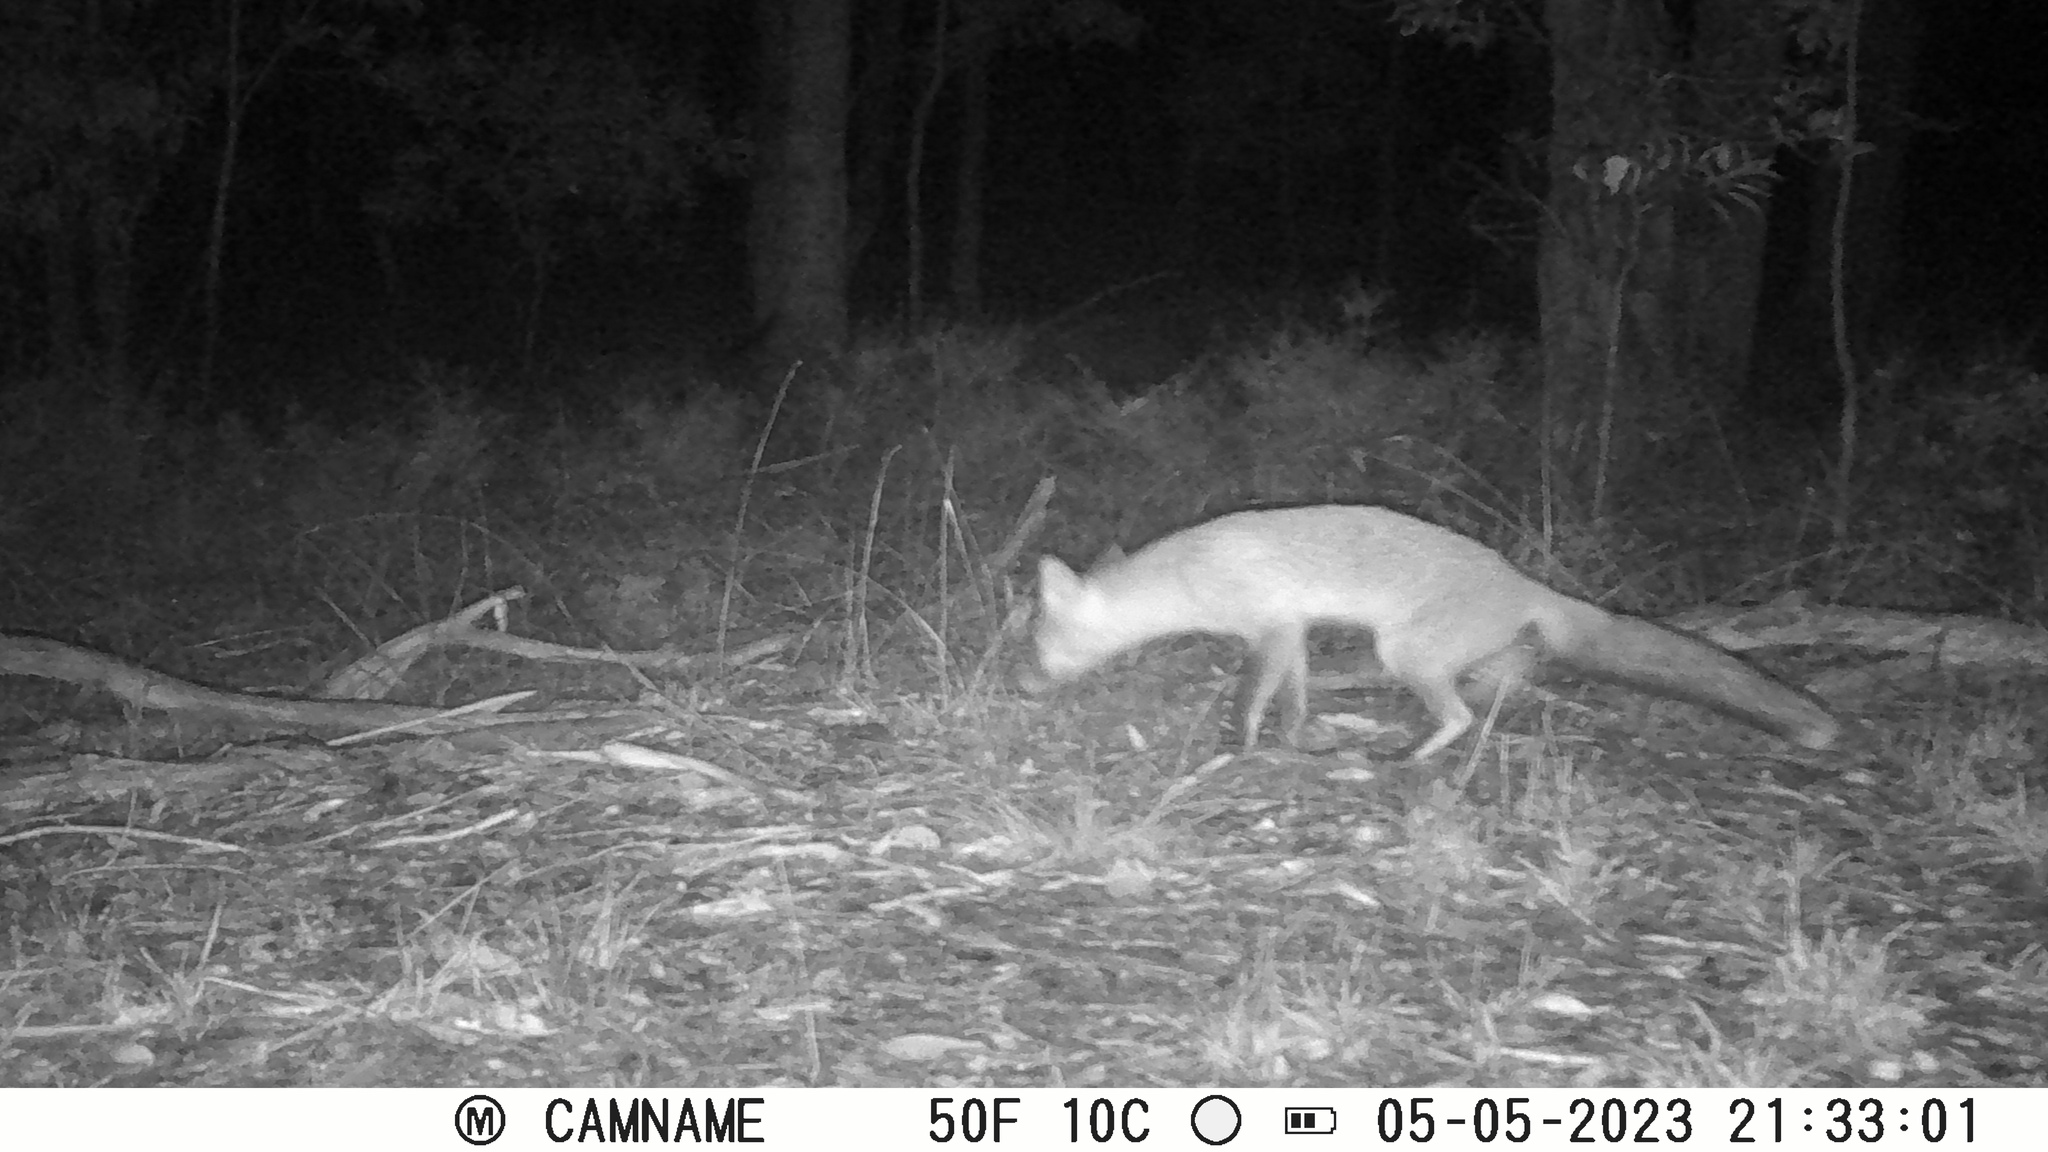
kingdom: Animalia
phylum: Chordata
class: Mammalia
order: Carnivora
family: Canidae
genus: Vulpes
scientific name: Vulpes vulpes
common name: Red fox
